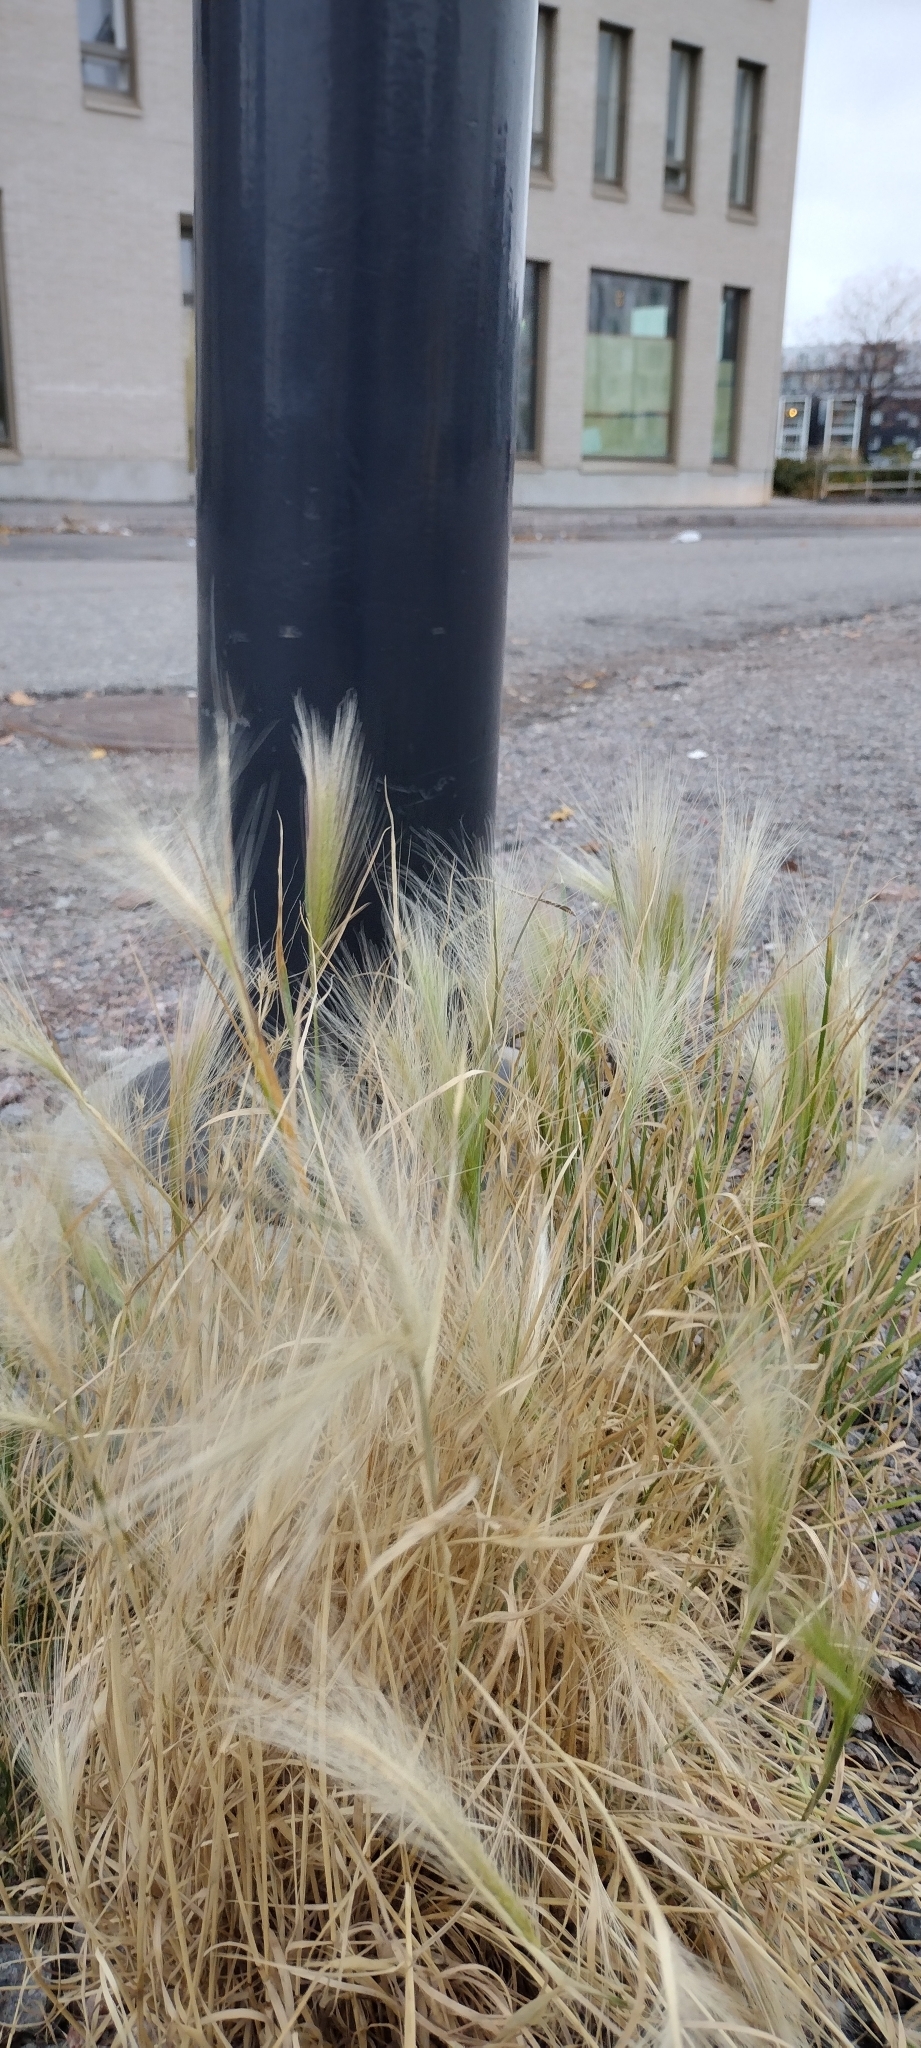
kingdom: Plantae
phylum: Tracheophyta
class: Liliopsida
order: Poales
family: Poaceae
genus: Hordeum
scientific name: Hordeum jubatum
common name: Foxtail barley
